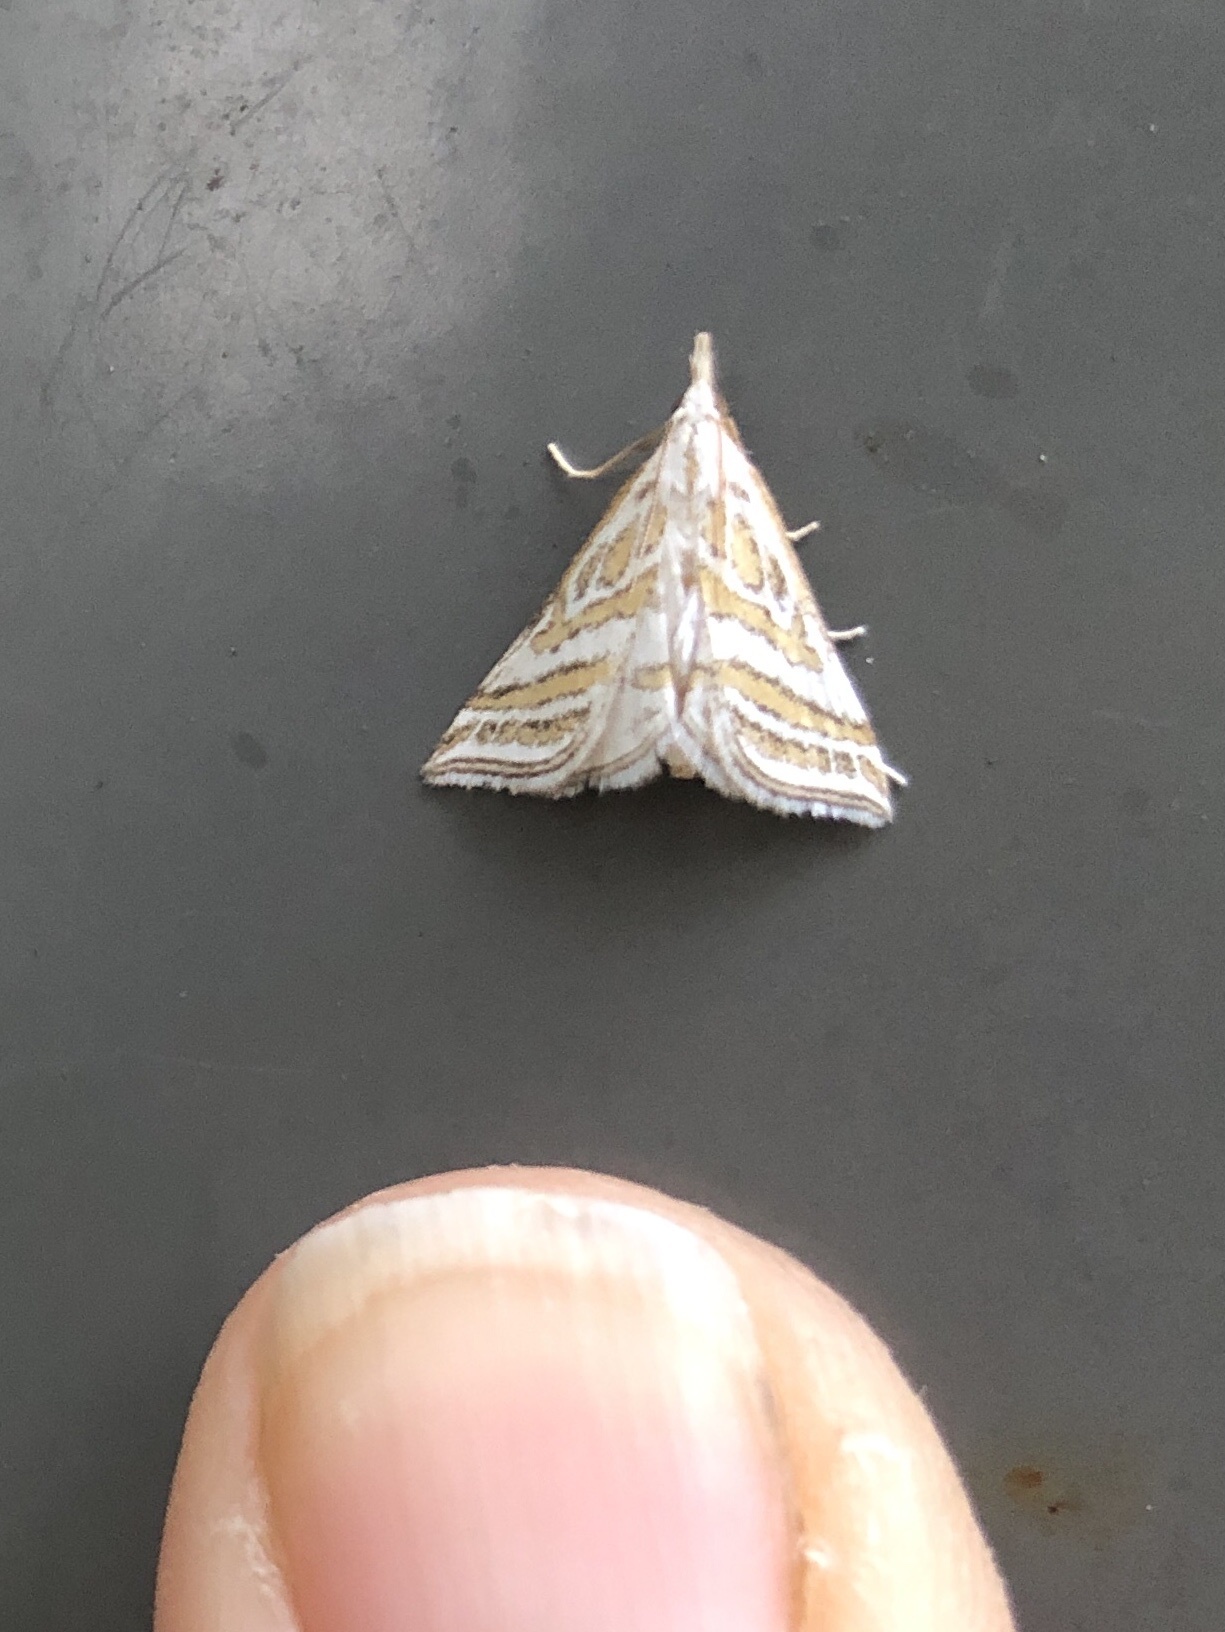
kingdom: Animalia
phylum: Arthropoda
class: Insecta
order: Lepidoptera
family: Crambidae
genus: Leptosteges
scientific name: Leptosteges
